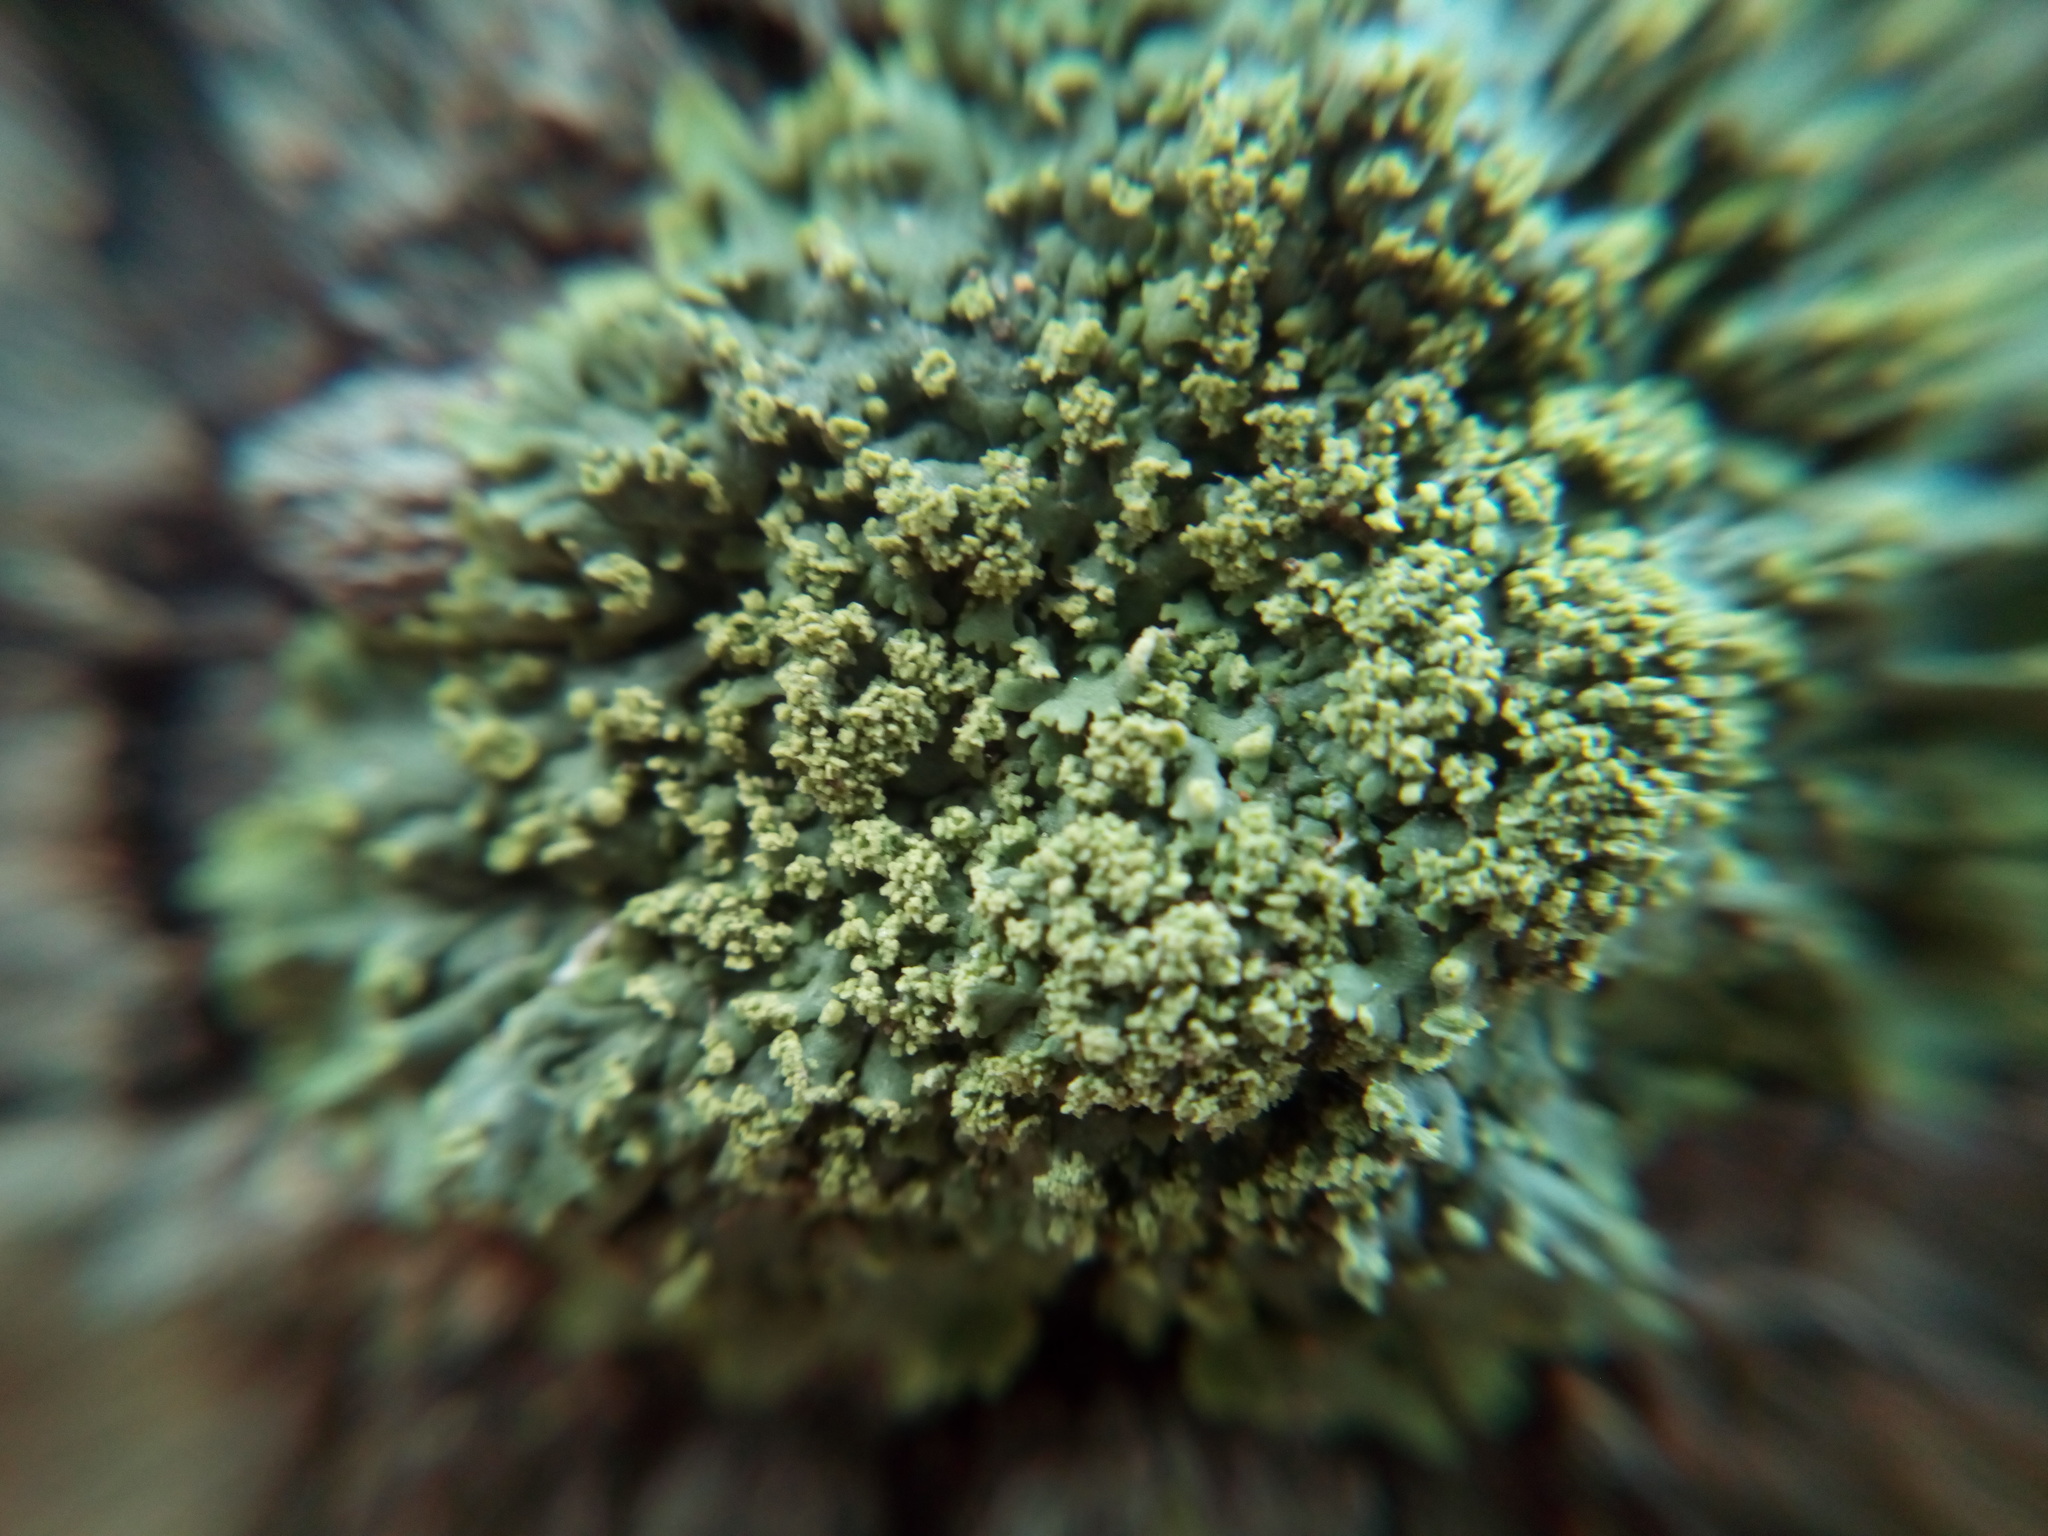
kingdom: Fungi
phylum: Ascomycota
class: Lecanoromycetes
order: Caliciales
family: Physciaceae
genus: Physcia
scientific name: Physcia millegrana
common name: Rosette lichen
